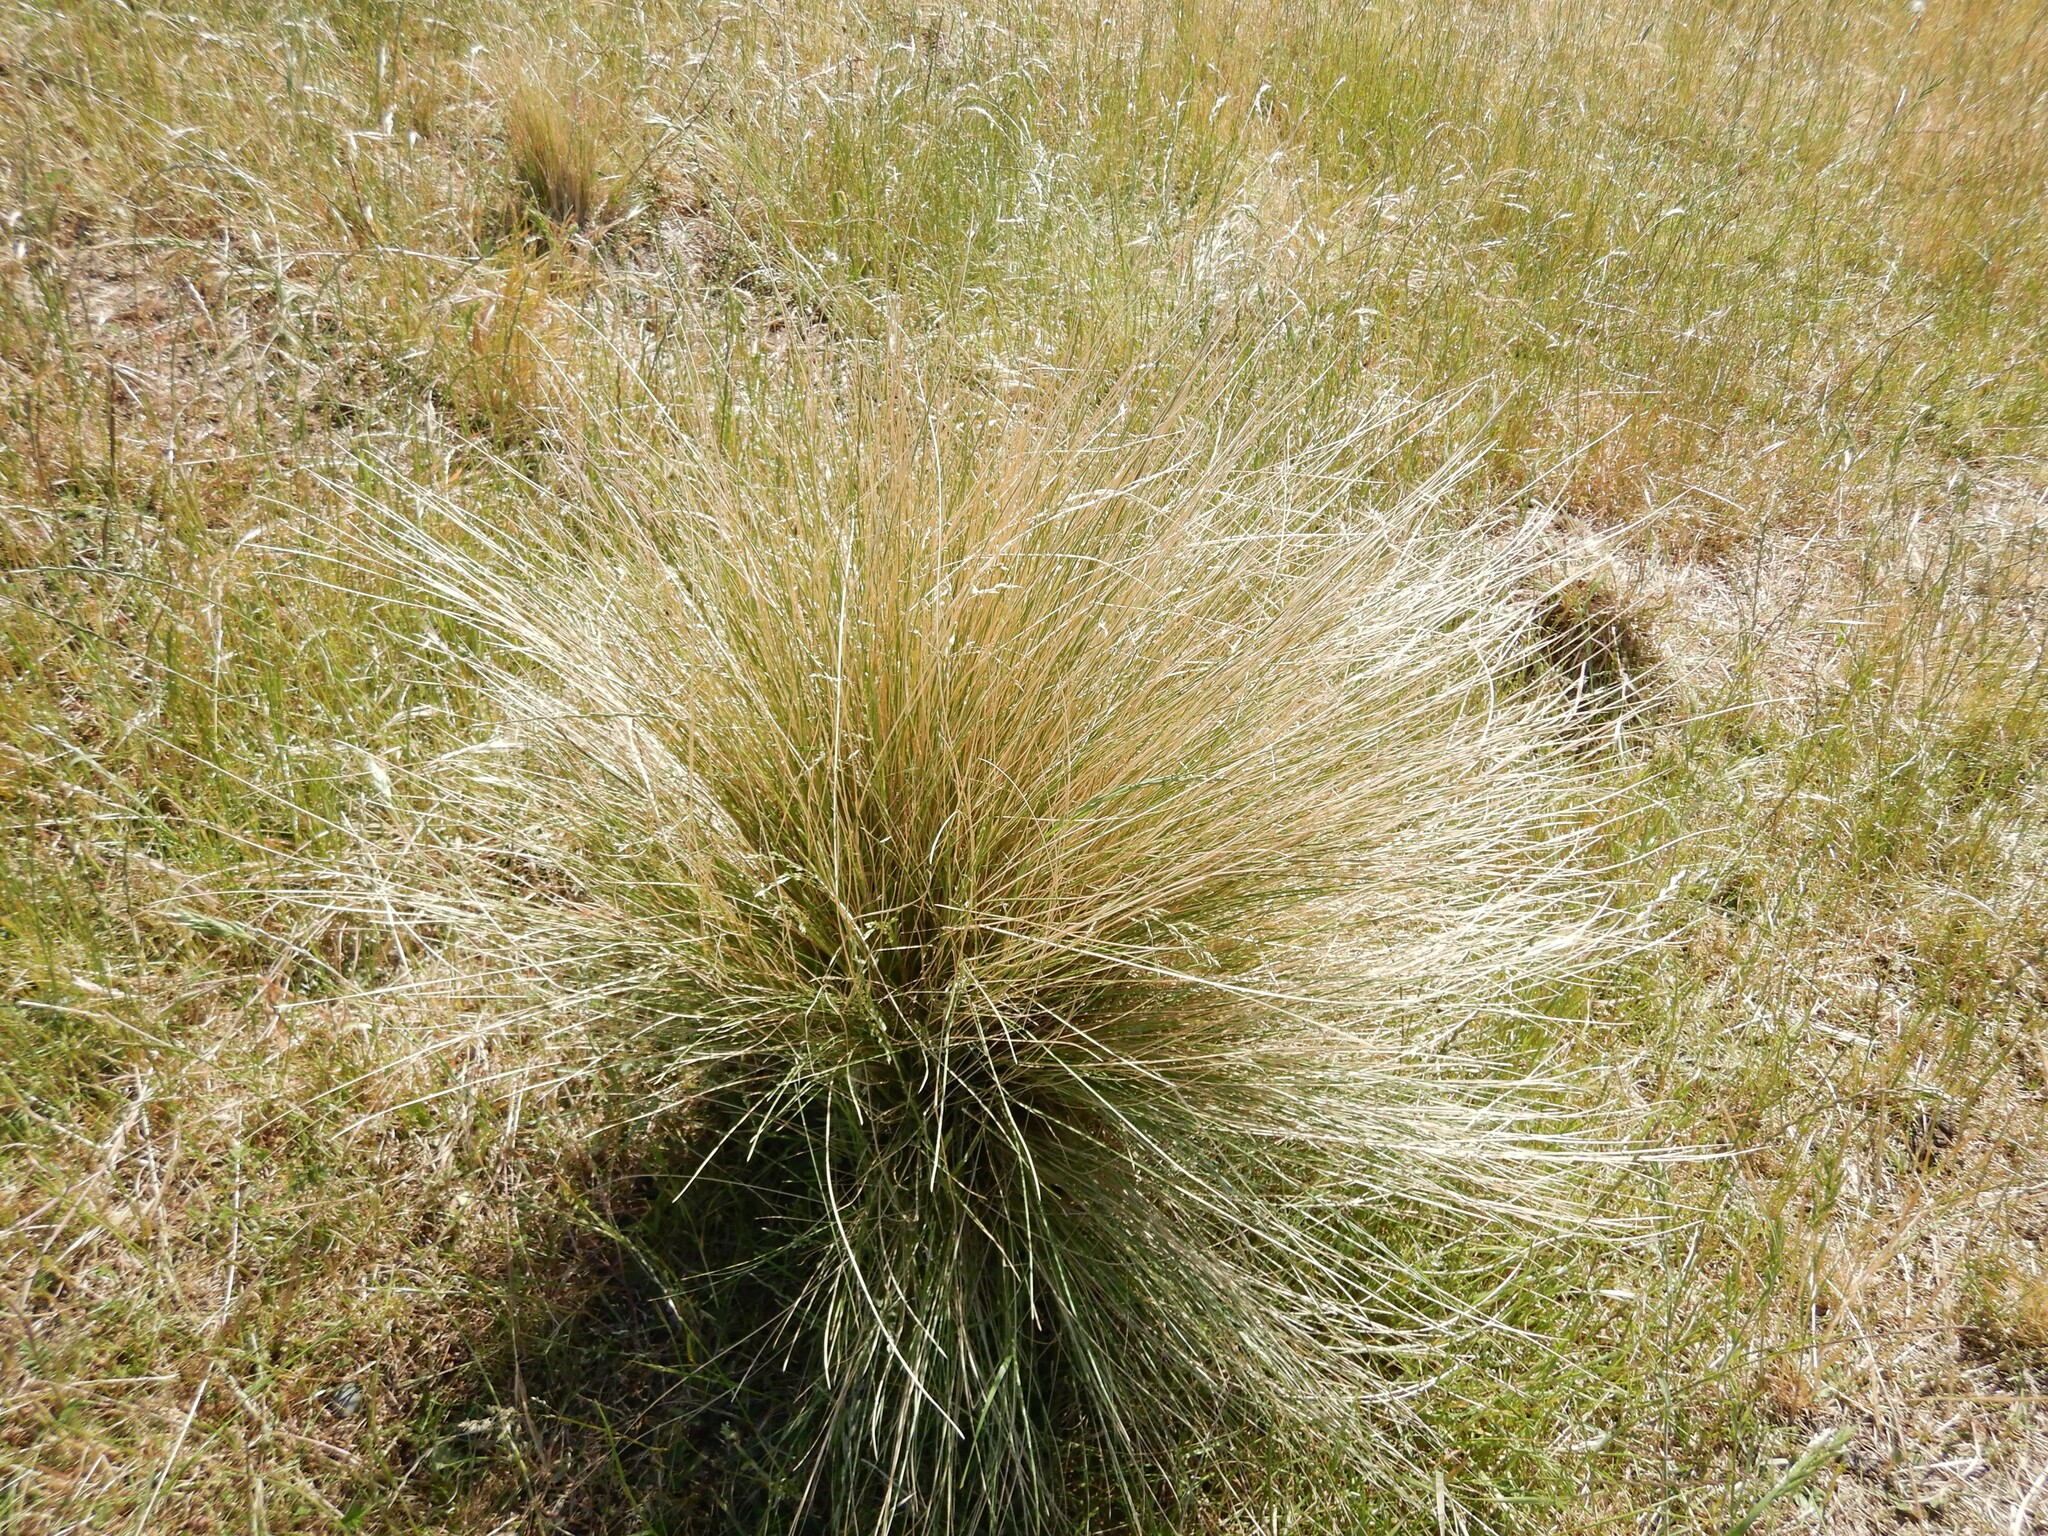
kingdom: Plantae
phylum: Tracheophyta
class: Liliopsida
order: Poales
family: Poaceae
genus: Poa
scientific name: Poa cita
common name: Silver tussock
